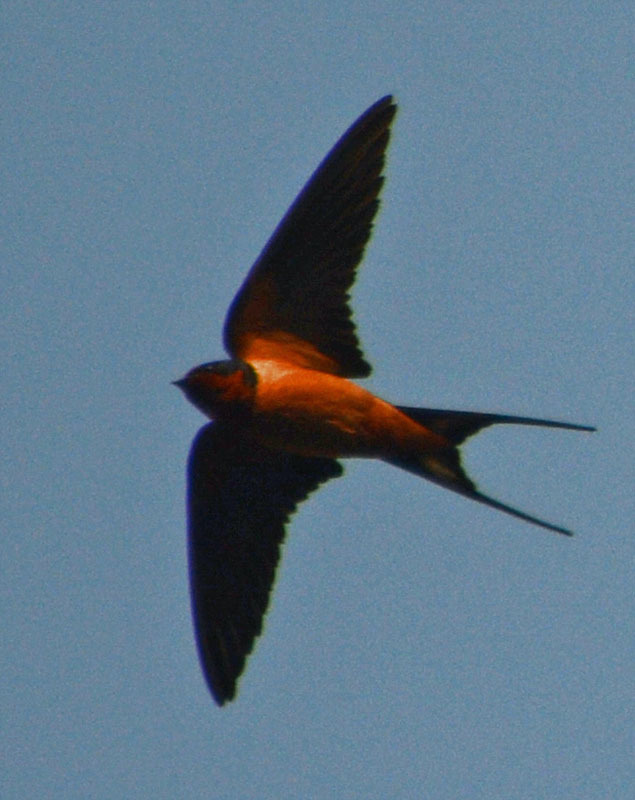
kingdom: Animalia
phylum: Chordata
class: Aves
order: Passeriformes
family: Hirundinidae
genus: Hirundo
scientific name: Hirundo rustica
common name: Barn swallow
